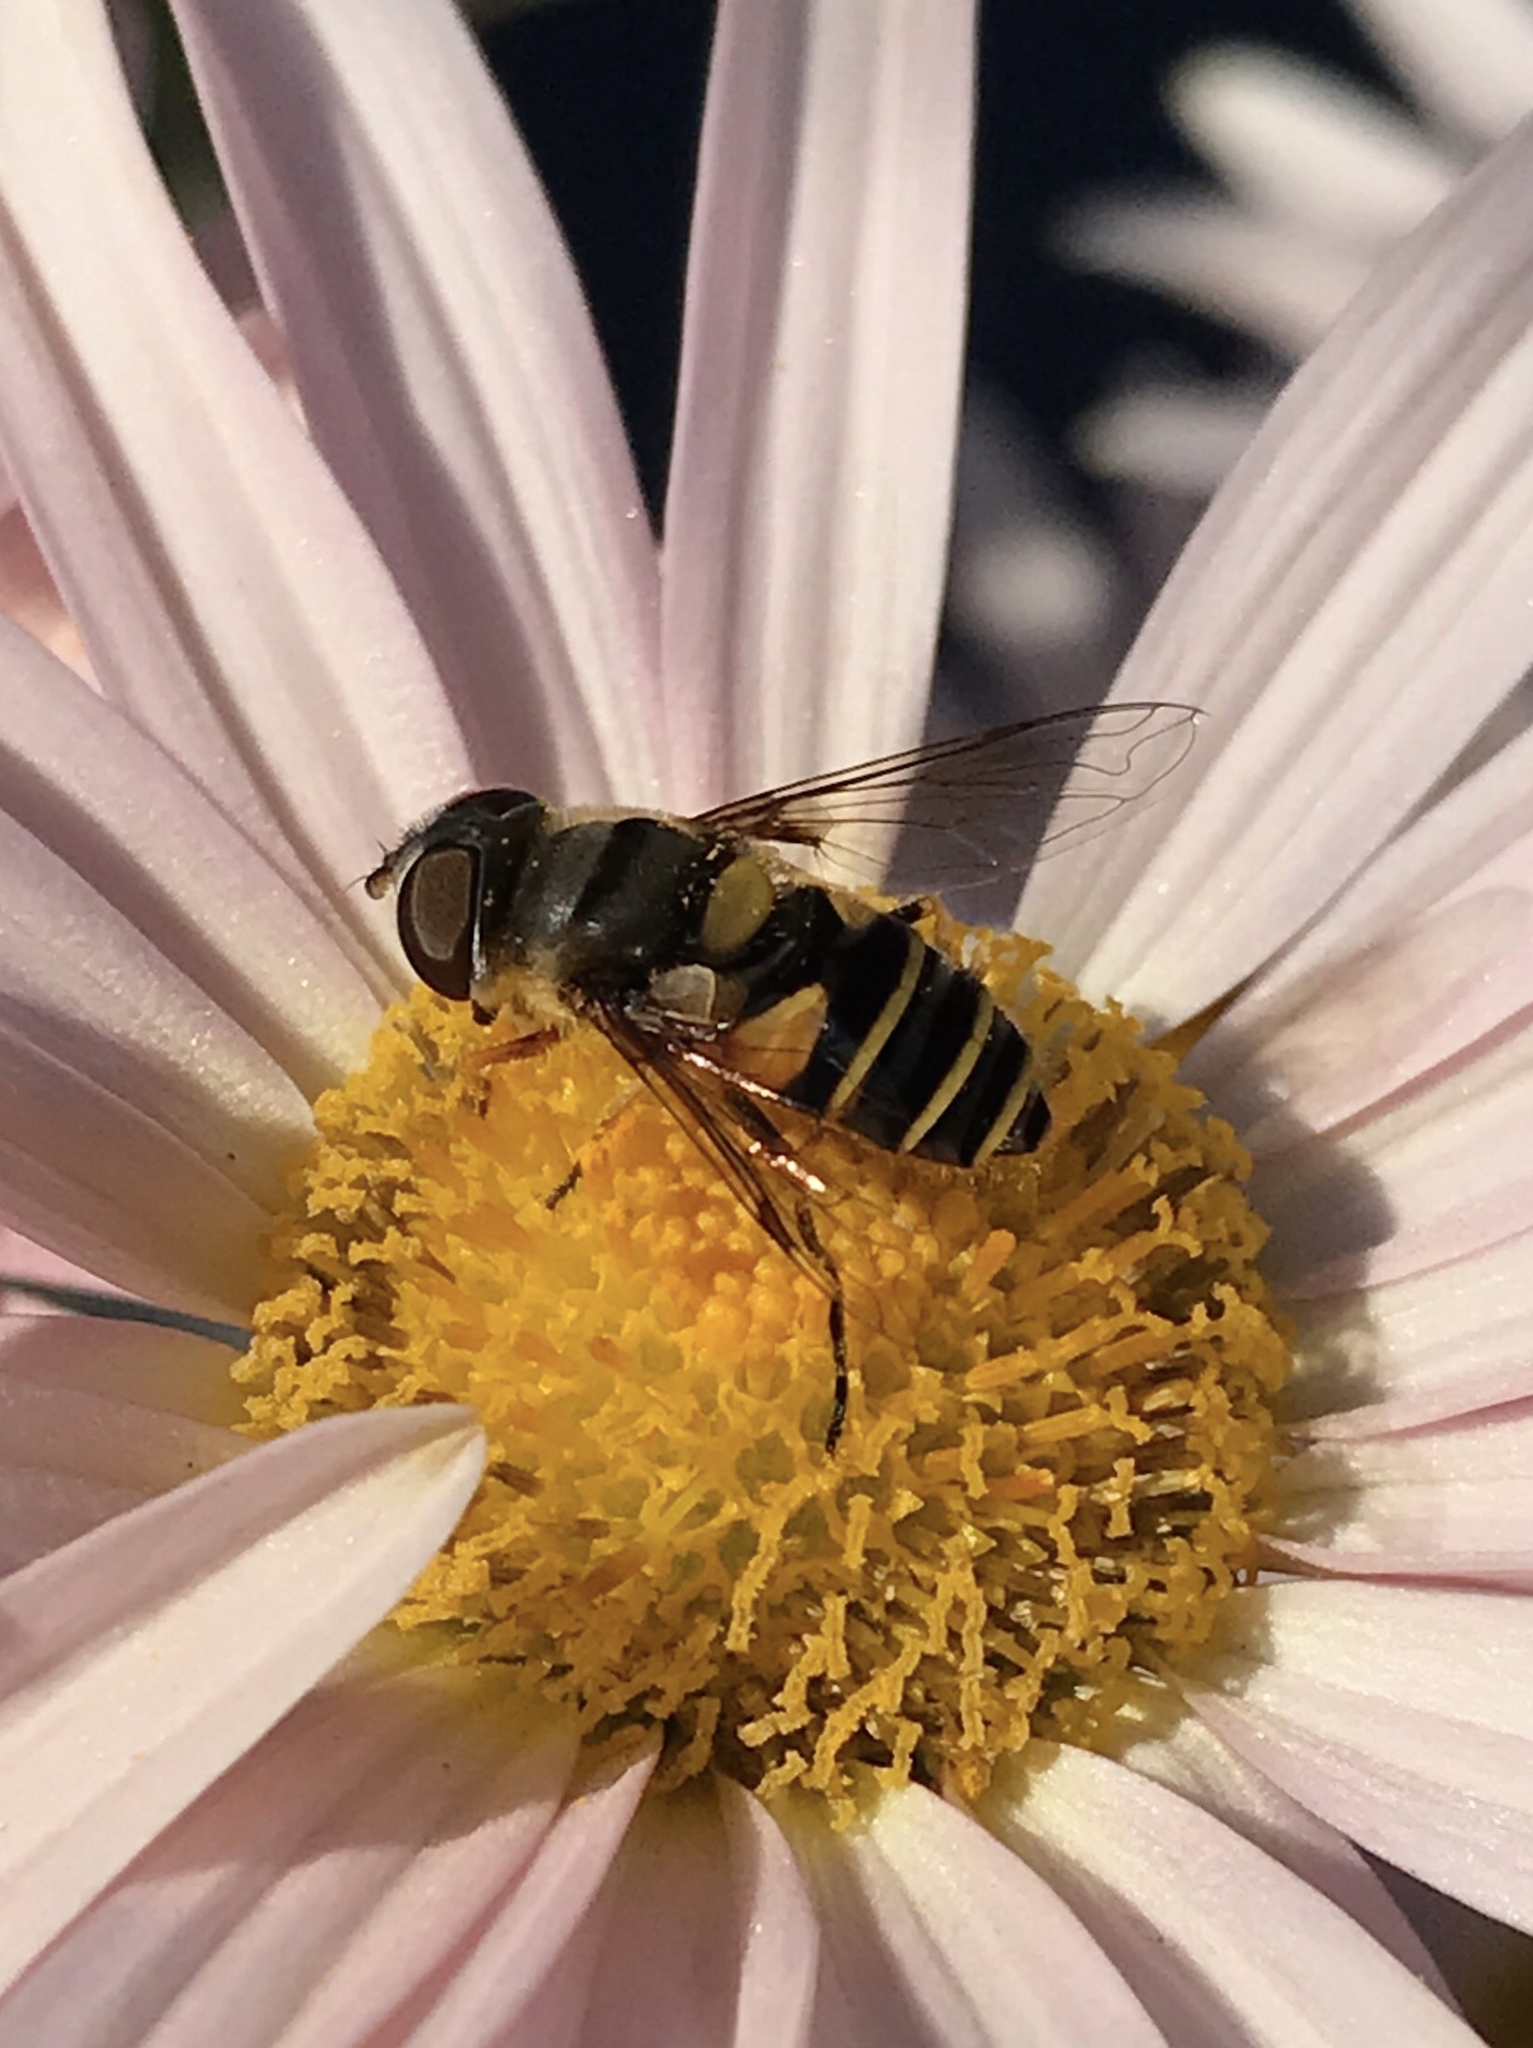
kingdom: Animalia
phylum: Arthropoda
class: Insecta
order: Diptera
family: Syrphidae
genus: Eristalis
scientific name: Eristalis transversa
